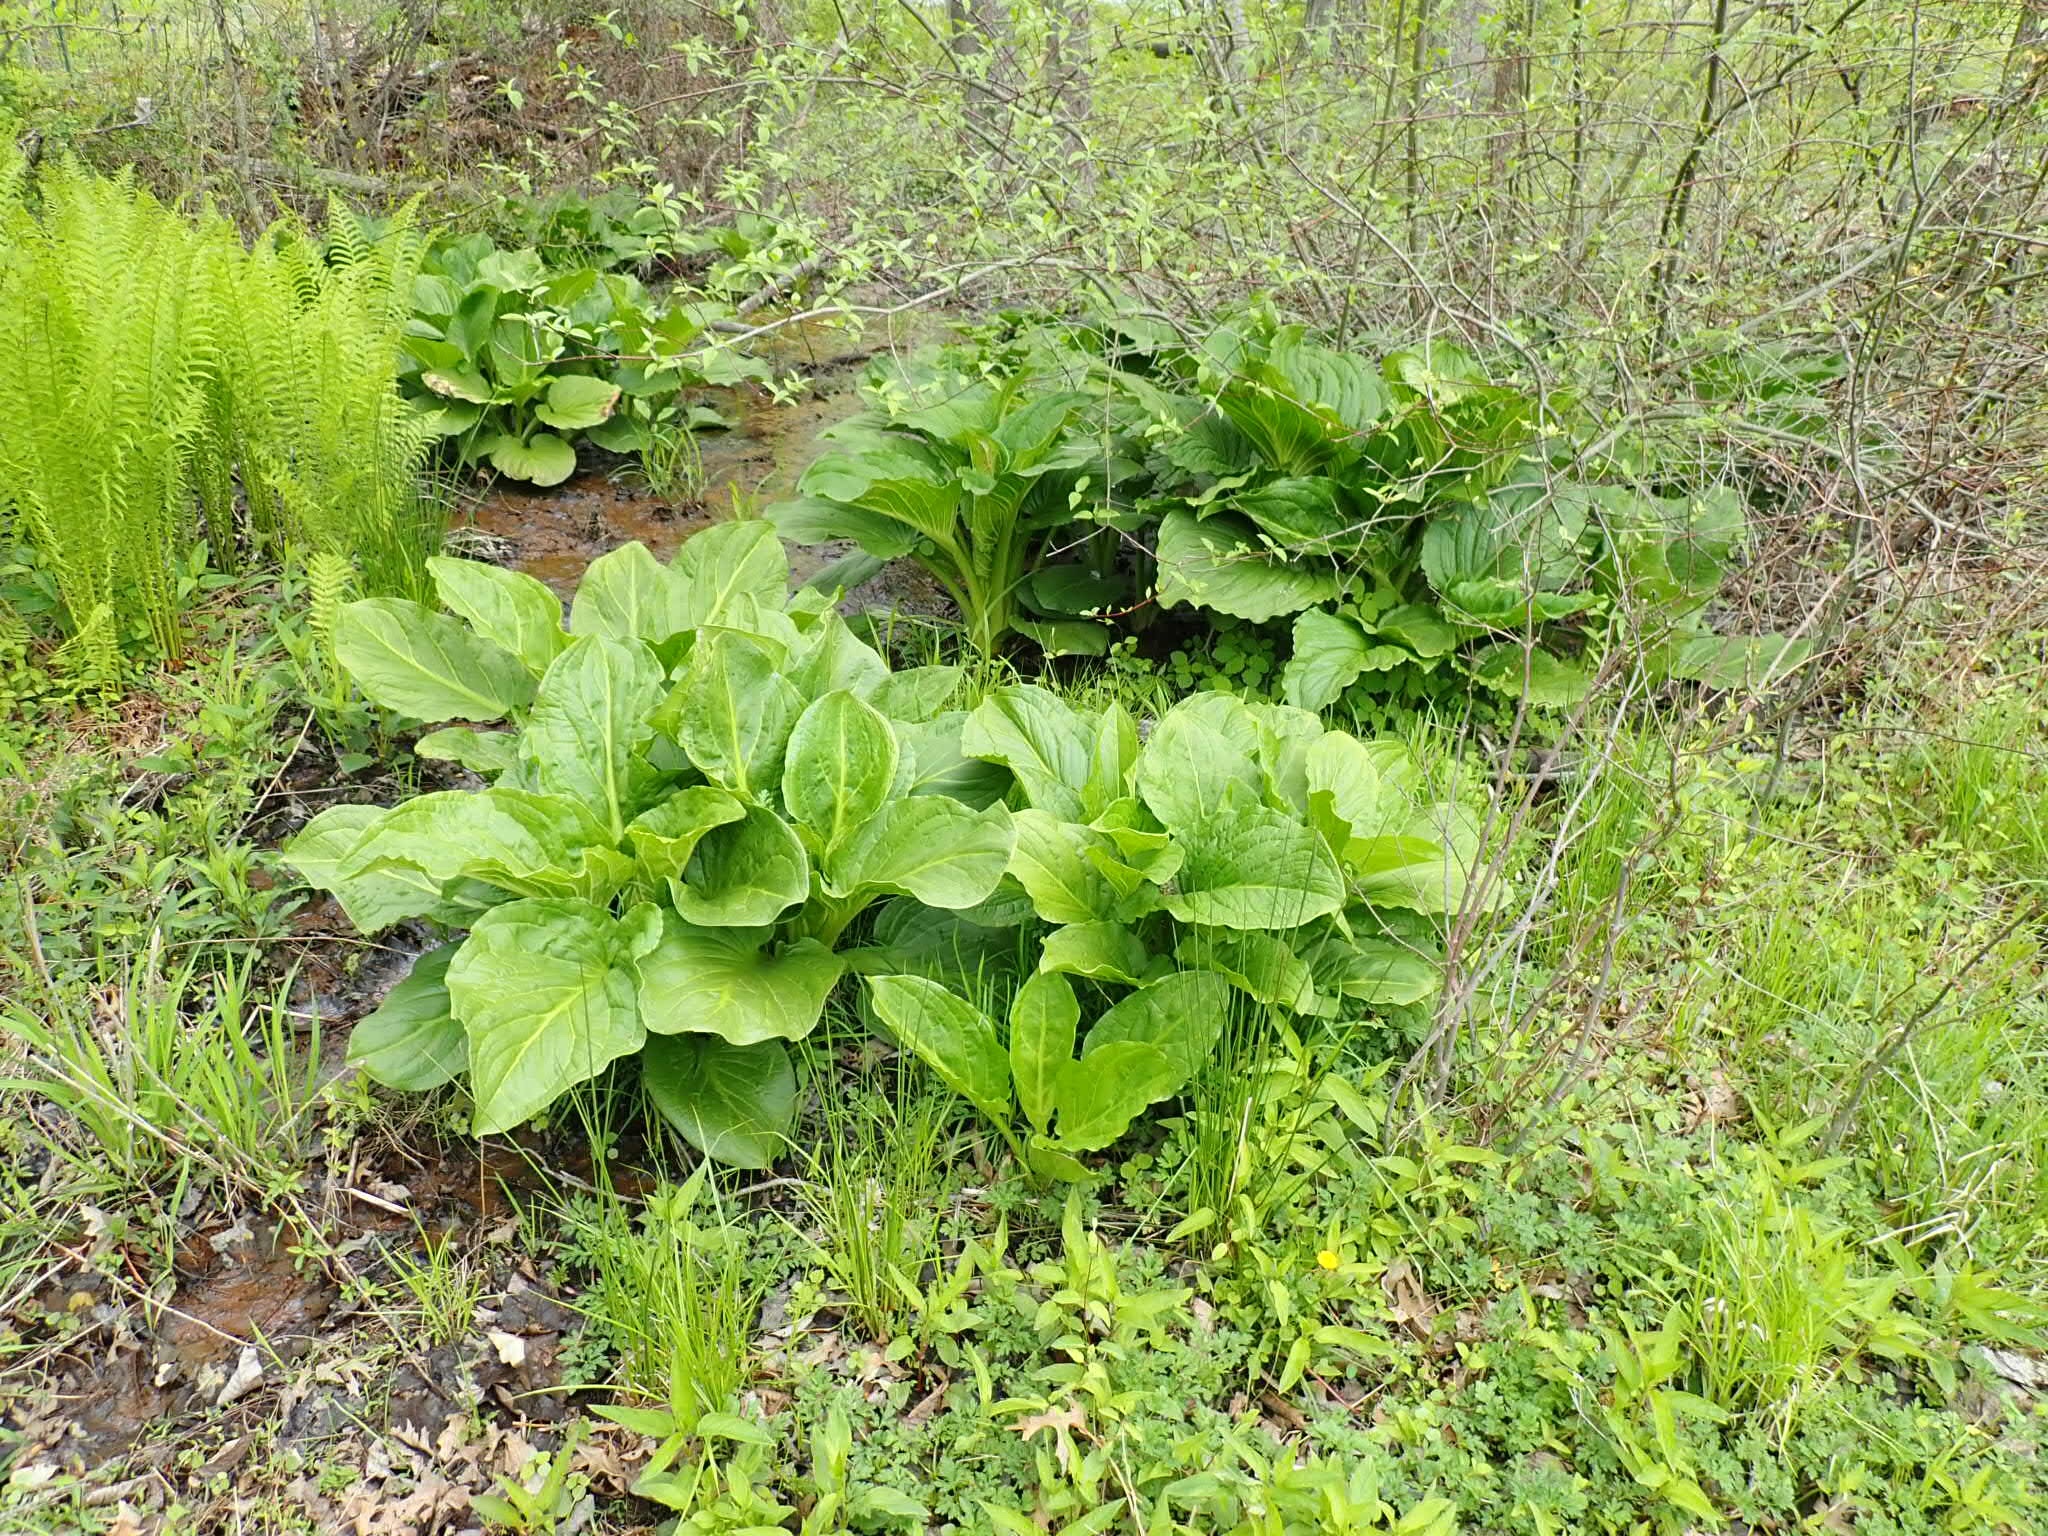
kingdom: Plantae
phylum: Tracheophyta
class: Liliopsida
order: Alismatales
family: Araceae
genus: Symplocarpus
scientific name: Symplocarpus foetidus
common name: Eastern skunk cabbage
